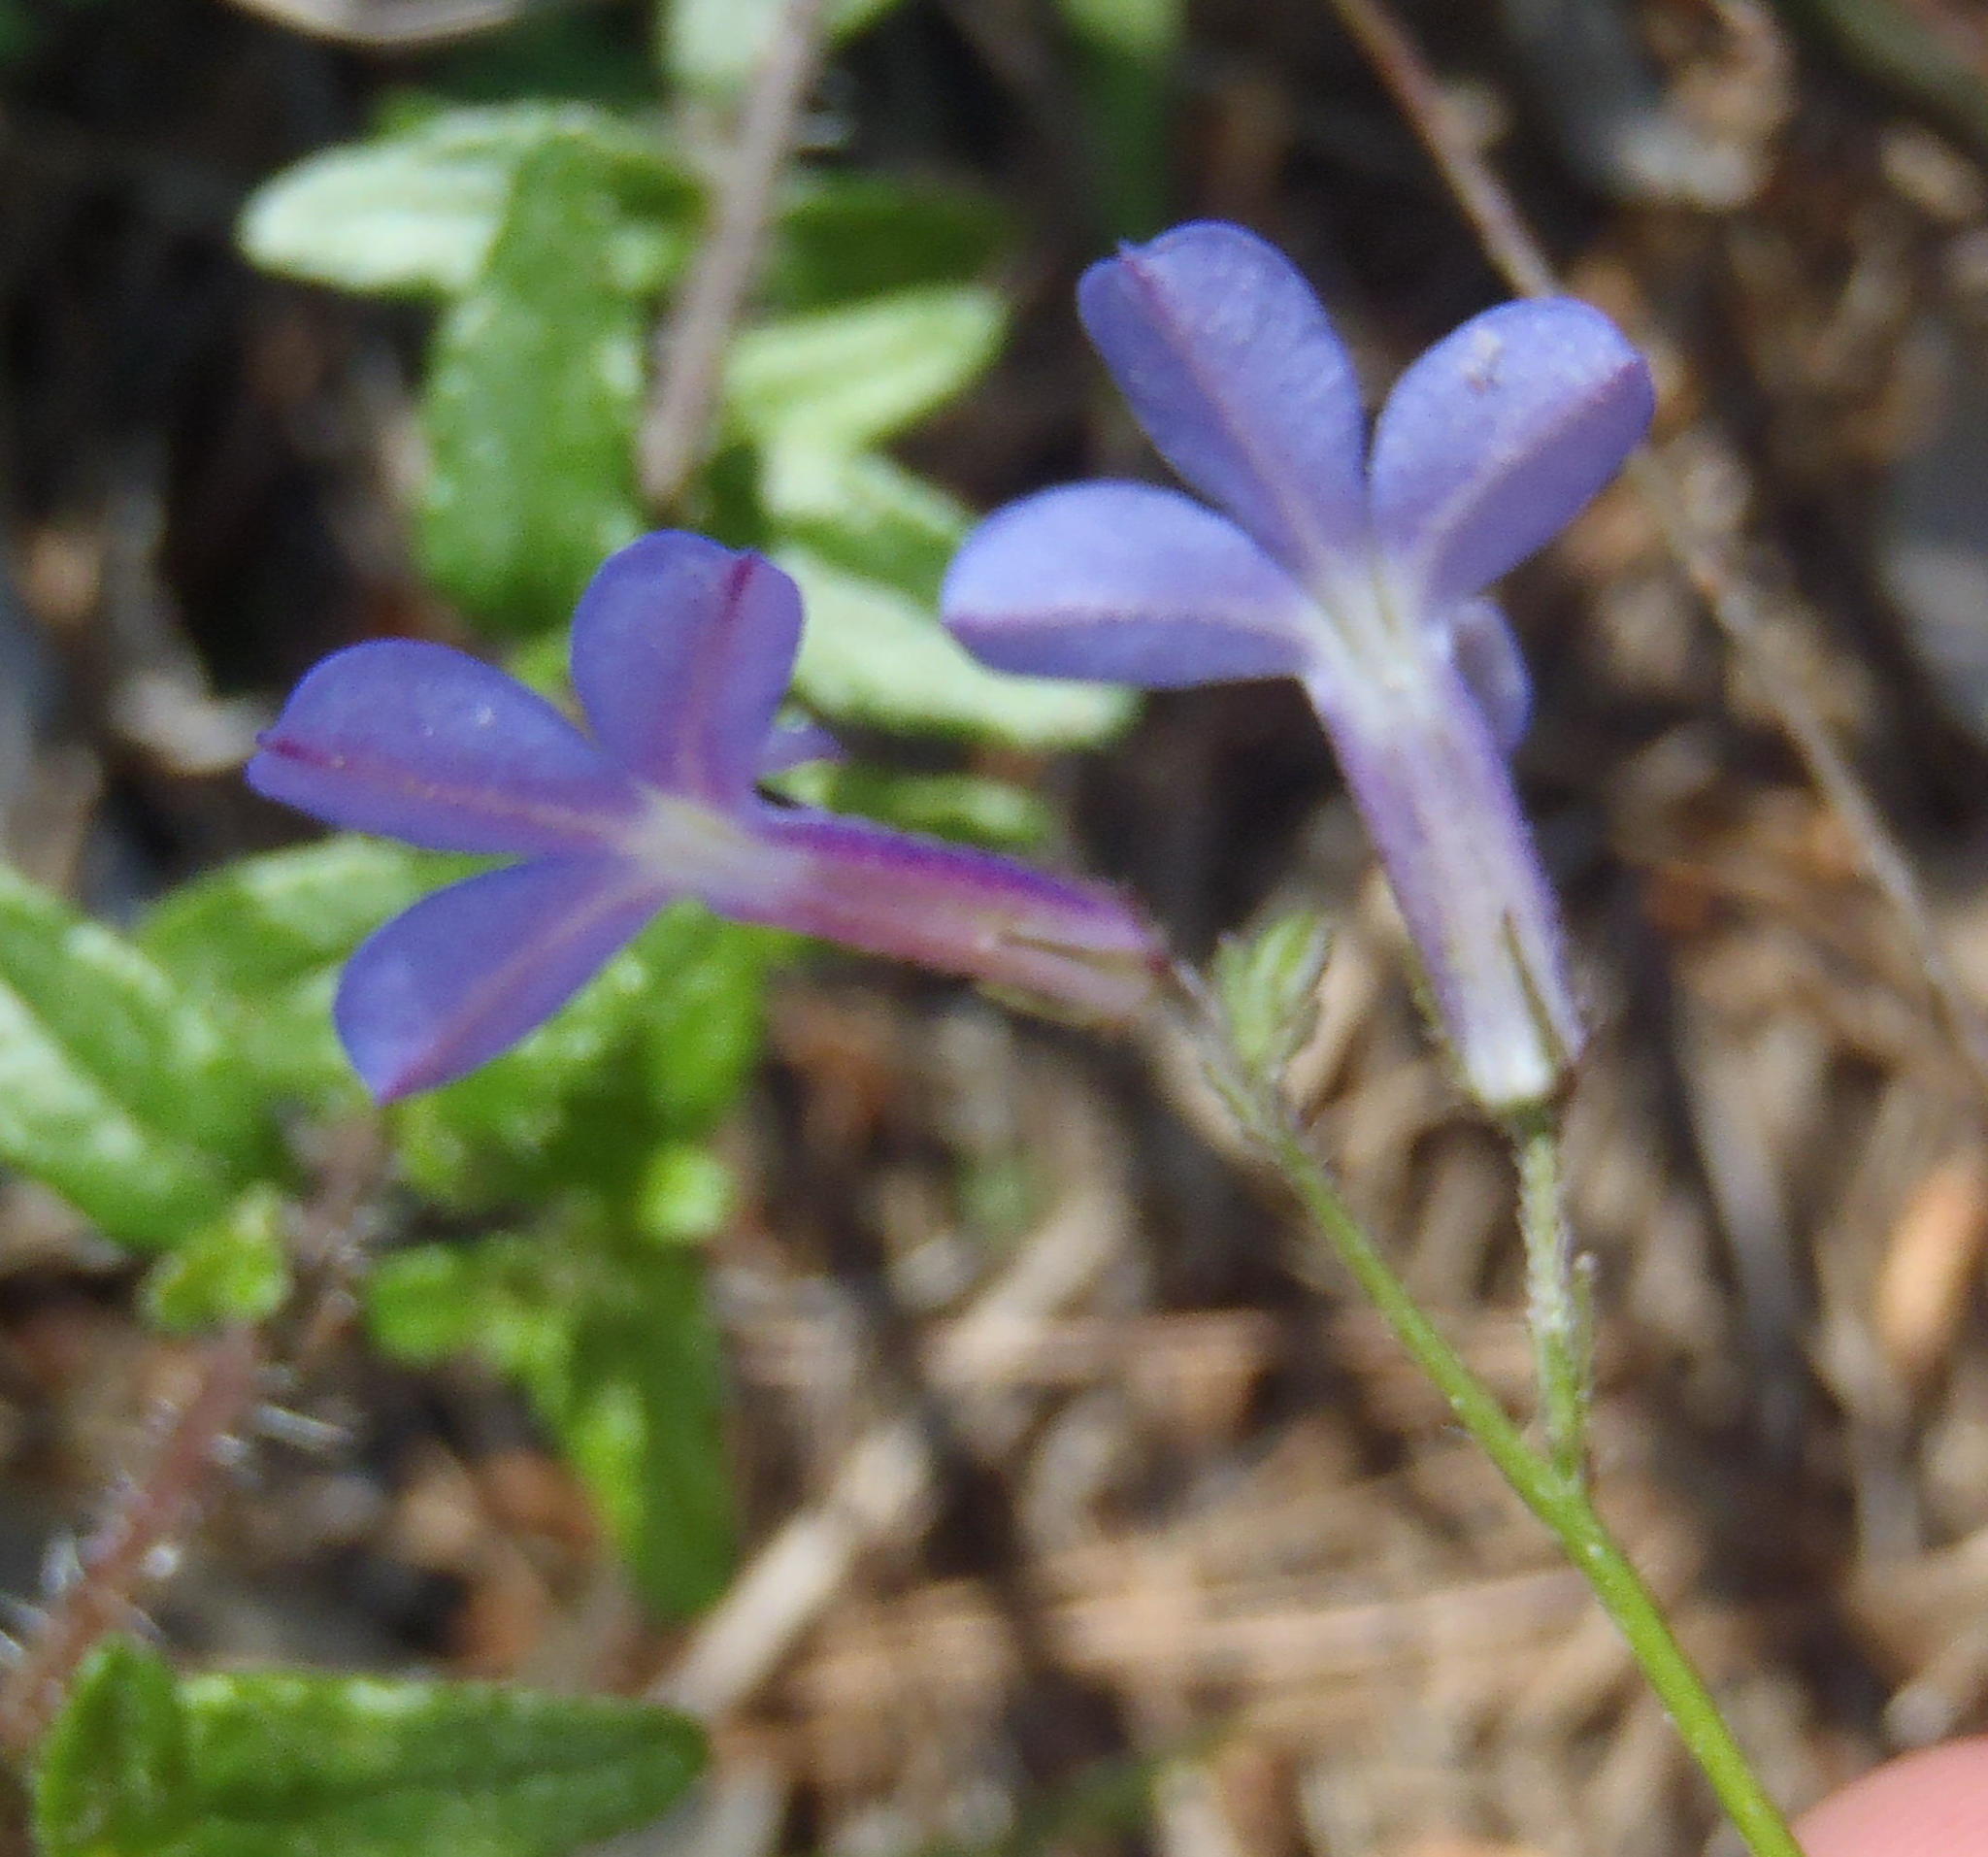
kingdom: Plantae
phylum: Tracheophyta
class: Magnoliopsida
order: Asterales
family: Campanulaceae
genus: Lobelia
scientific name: Lobelia neglecta
